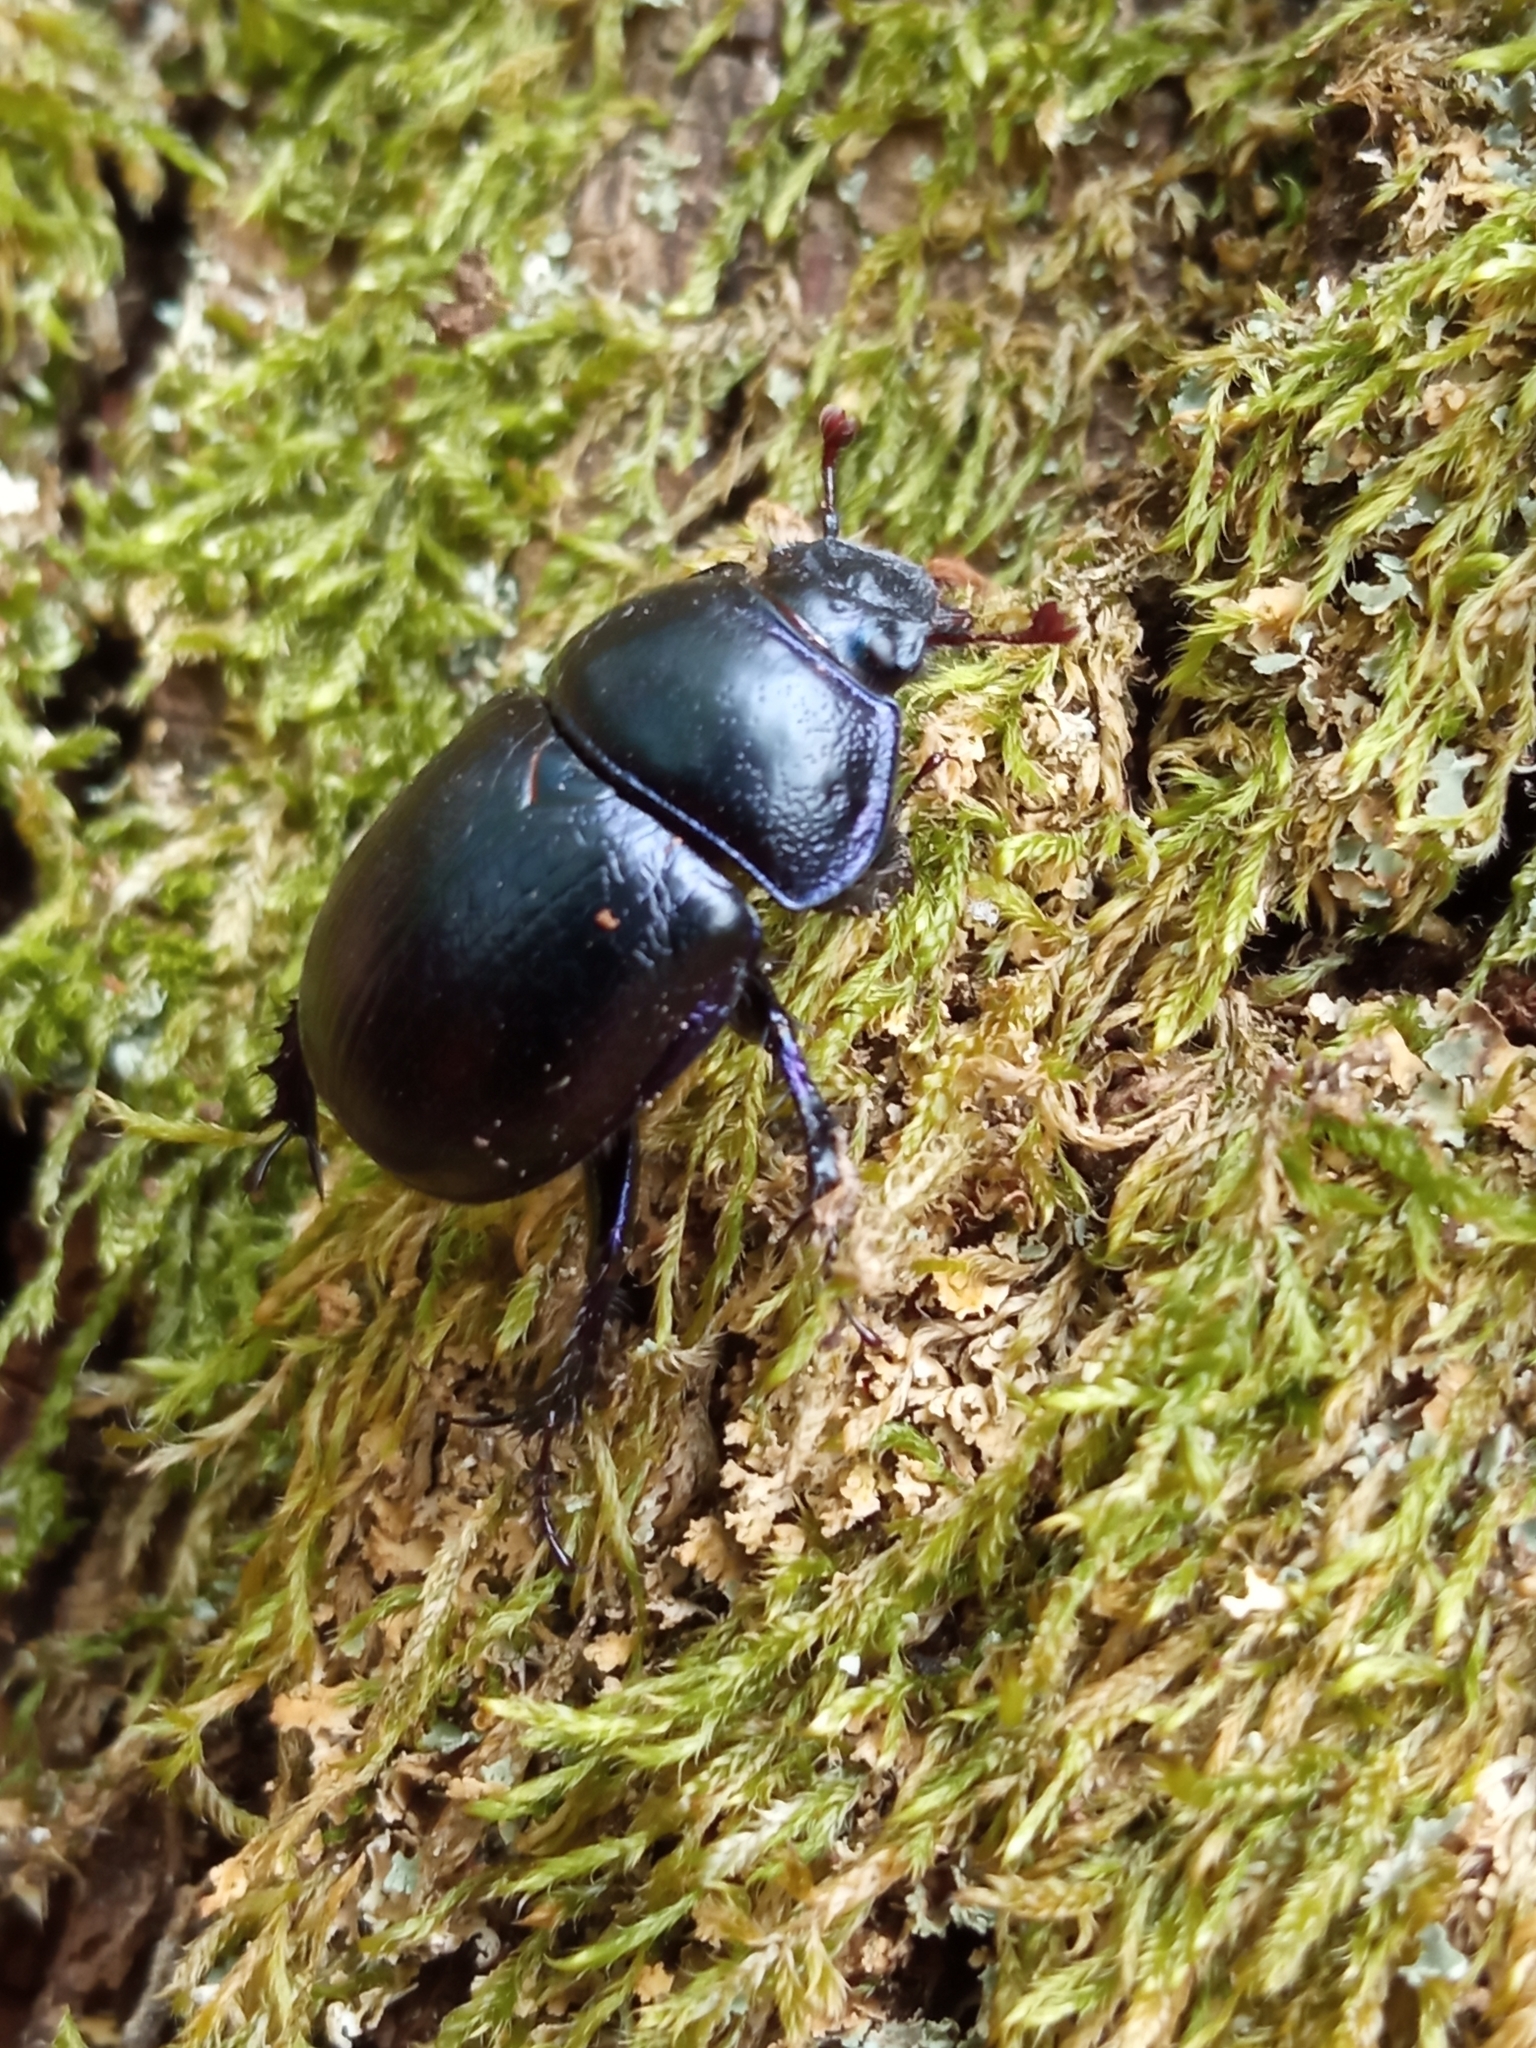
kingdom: Animalia
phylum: Arthropoda
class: Insecta
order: Coleoptera
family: Geotrupidae
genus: Anoplotrupes
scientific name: Anoplotrupes stercorosus
